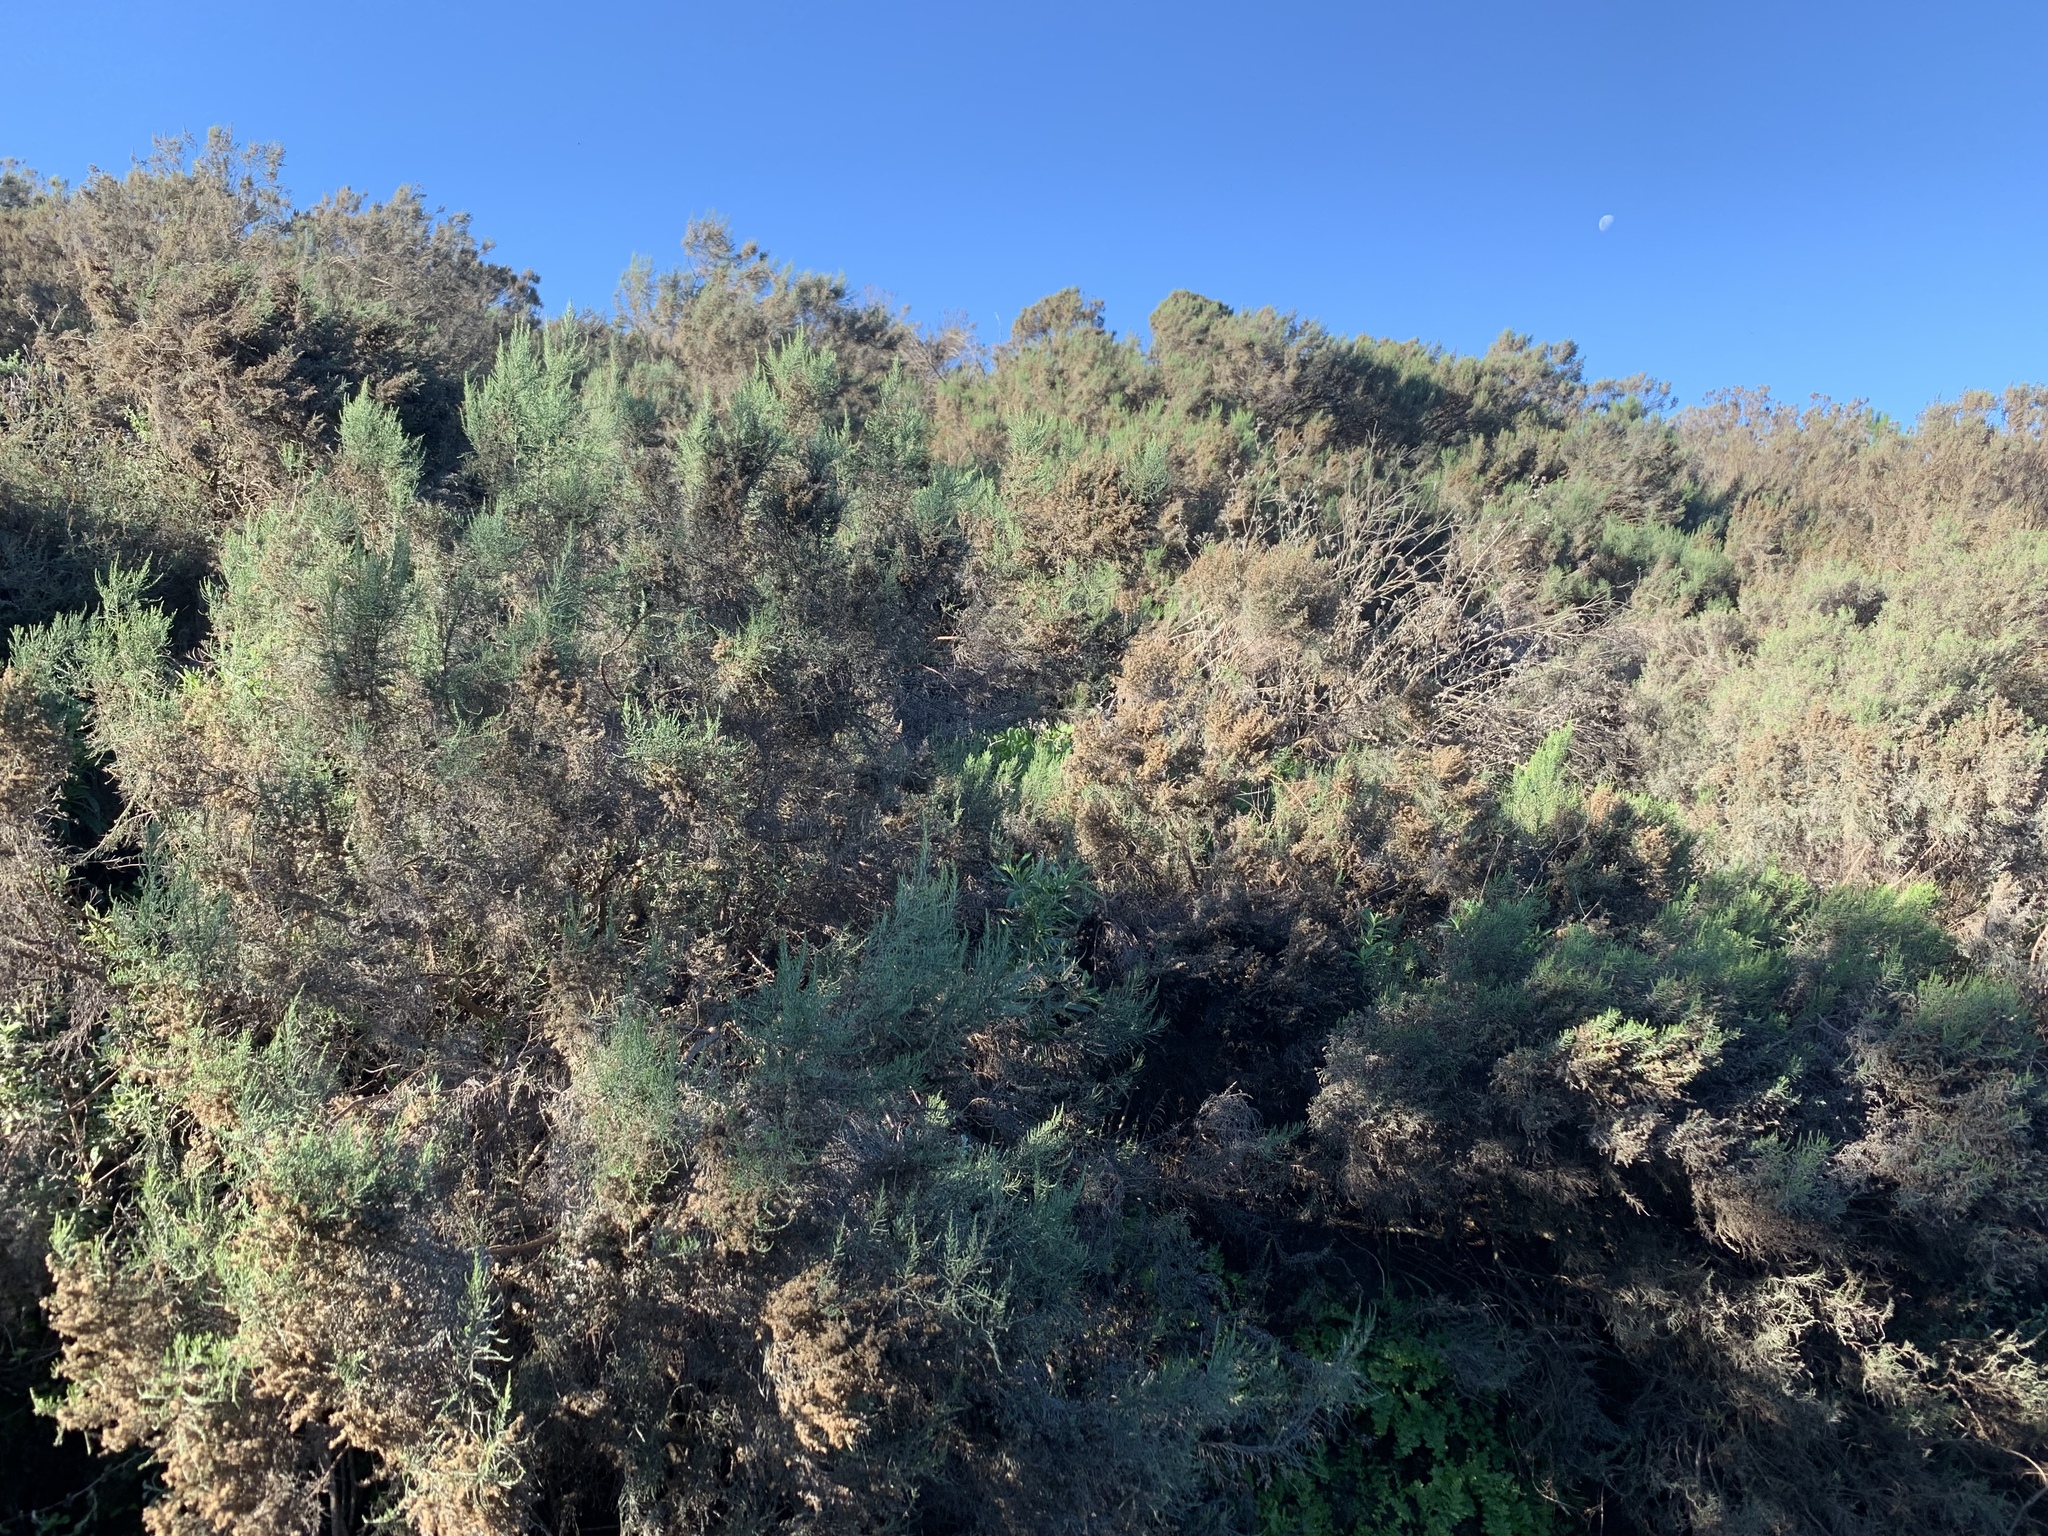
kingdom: Plantae
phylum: Tracheophyta
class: Magnoliopsida
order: Asterales
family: Asteraceae
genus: Dicerothamnus
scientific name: Dicerothamnus rhinocerotis
